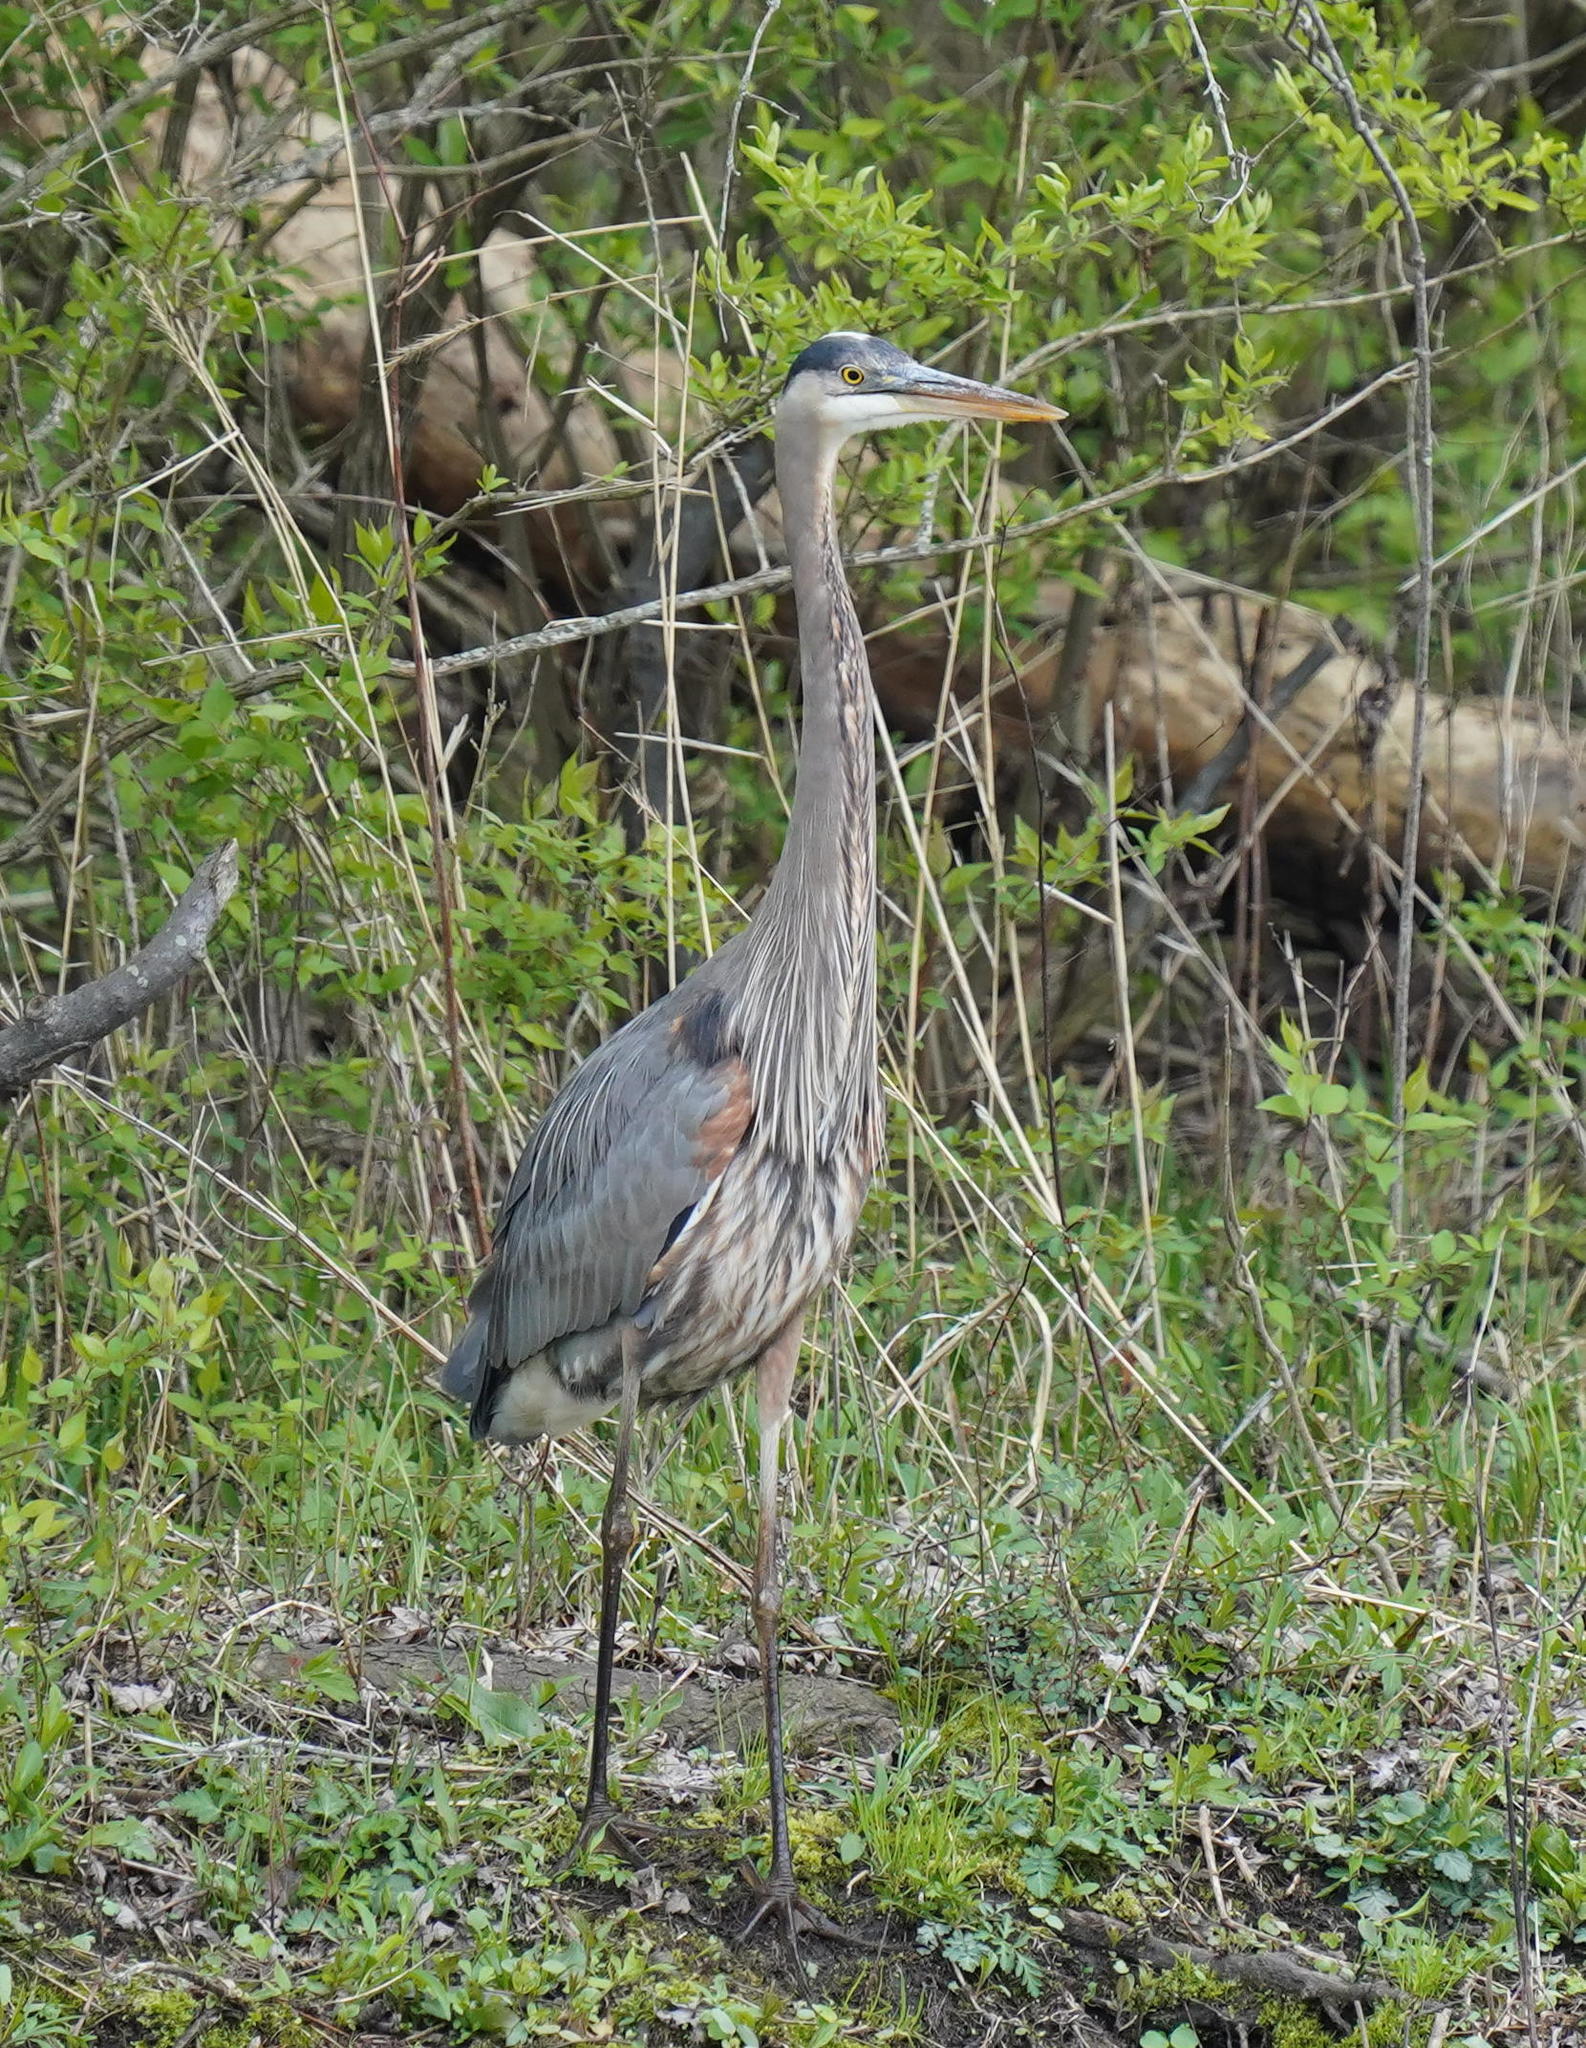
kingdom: Animalia
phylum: Chordata
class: Aves
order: Pelecaniformes
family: Ardeidae
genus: Ardea
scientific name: Ardea herodias
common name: Great blue heron
